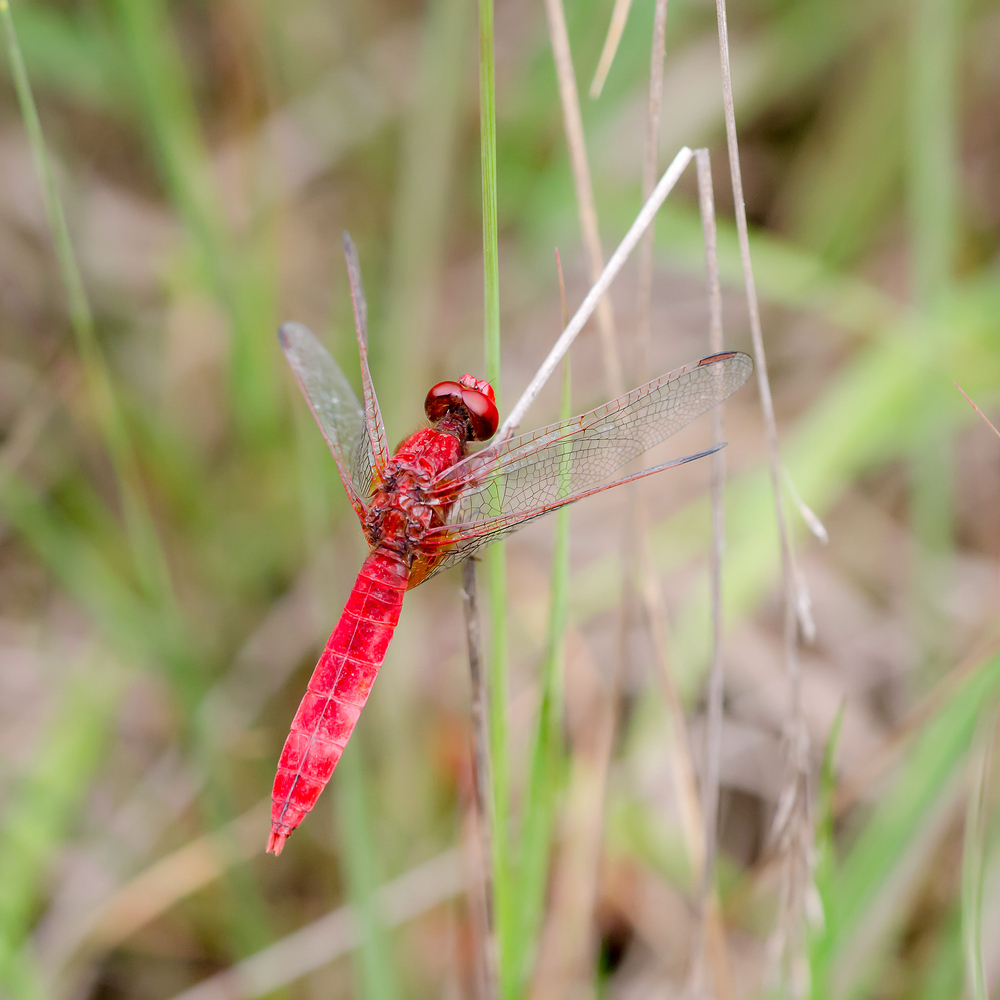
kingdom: Animalia
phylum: Arthropoda
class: Insecta
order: Odonata
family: Libellulidae
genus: Crocothemis
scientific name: Crocothemis erythraea
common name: Scarlet dragonfly
